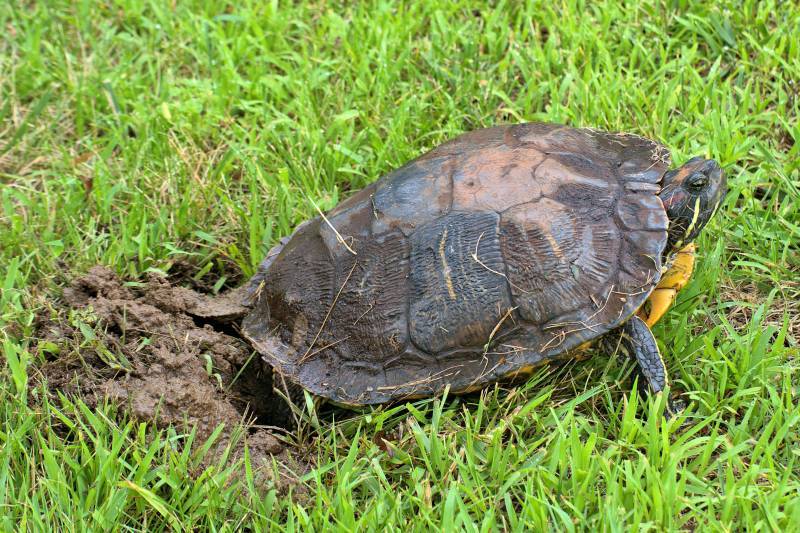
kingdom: Animalia
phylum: Chordata
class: Testudines
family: Emydidae
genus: Trachemys
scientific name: Trachemys scripta
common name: Slider
